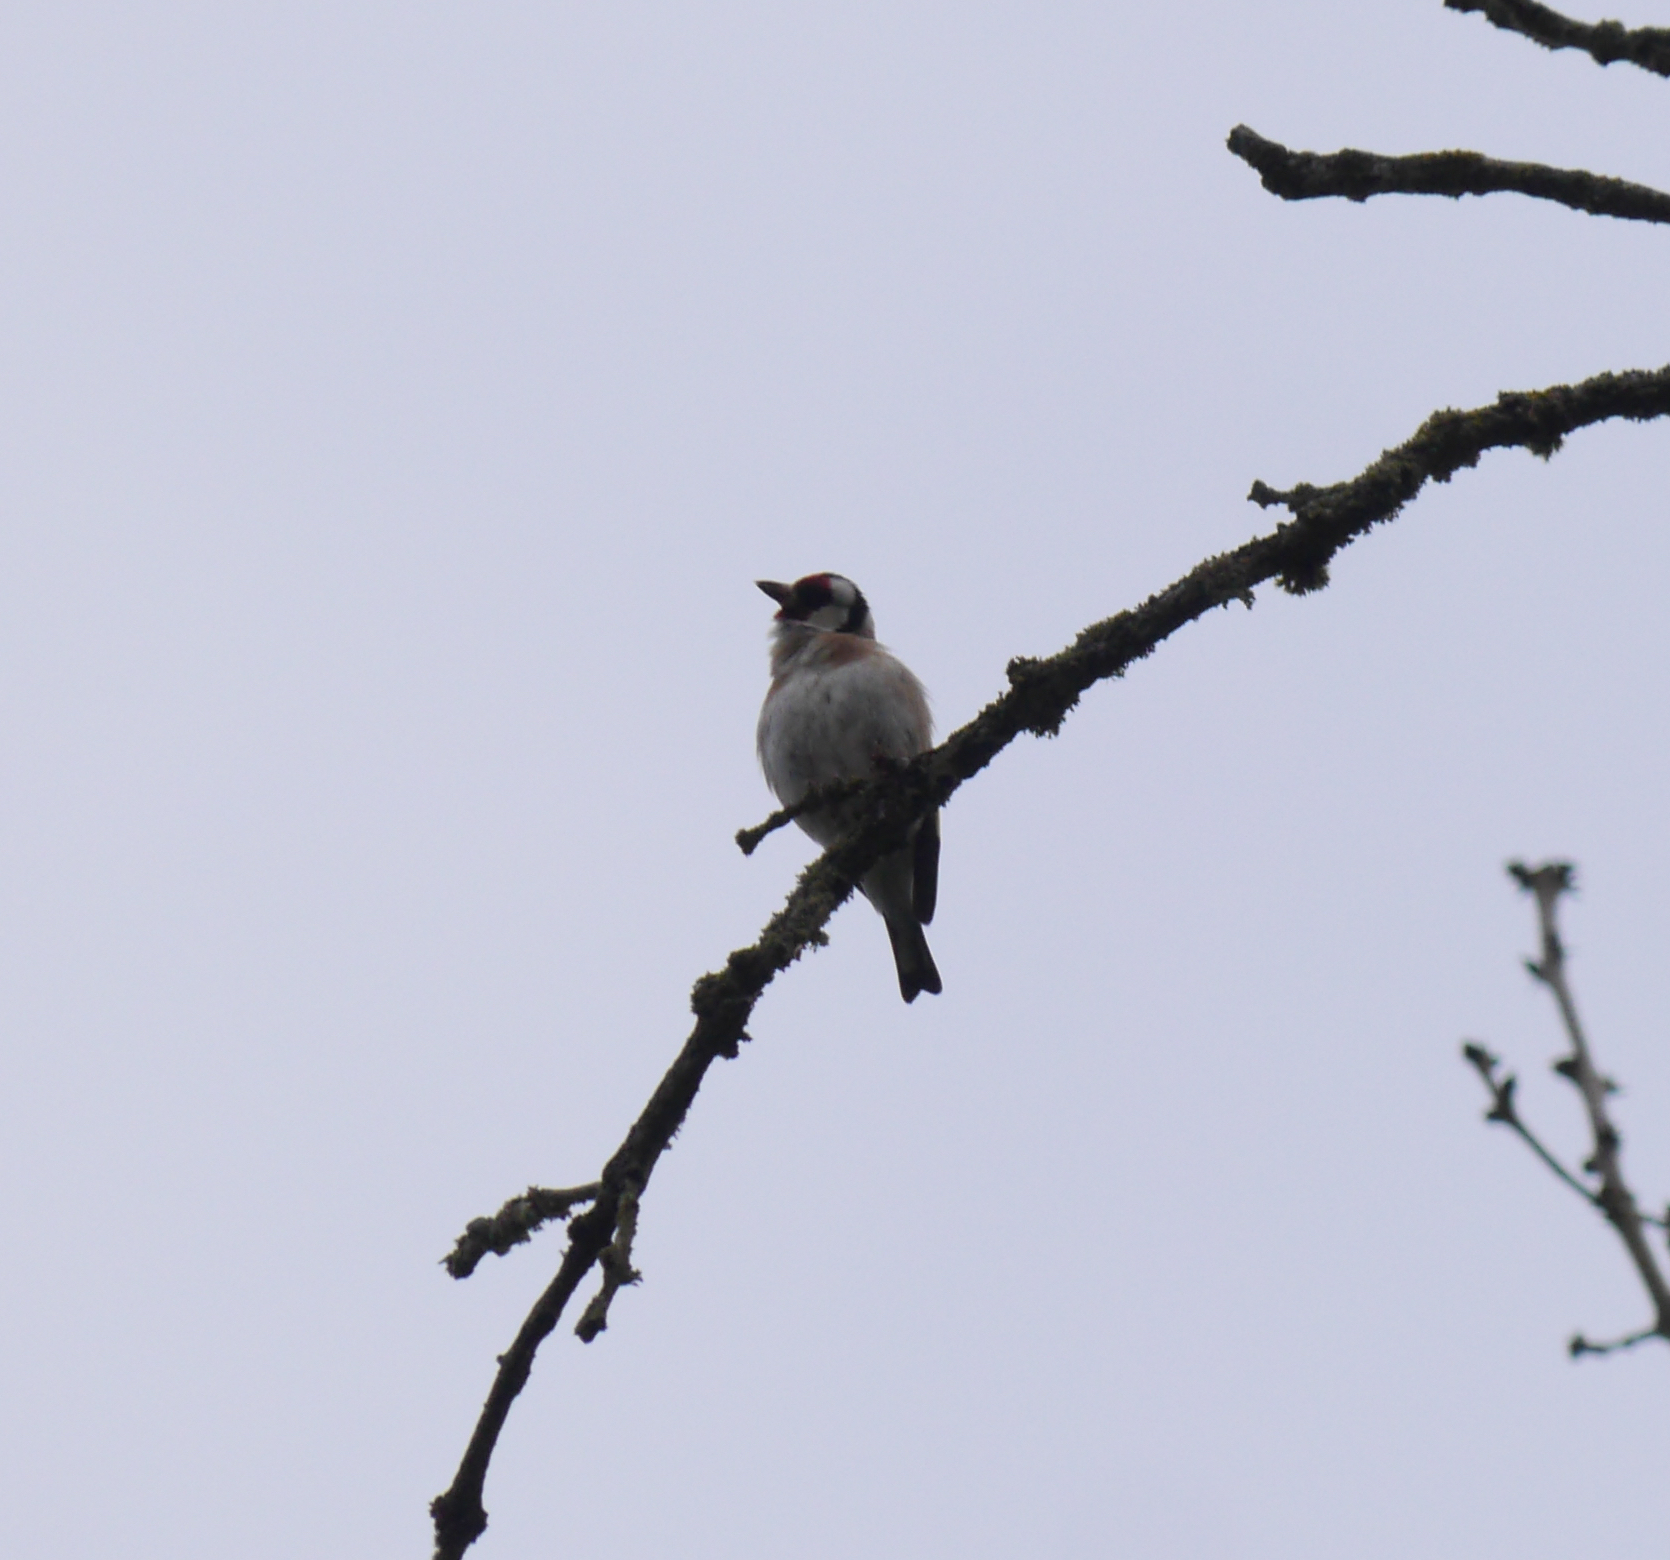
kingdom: Animalia
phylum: Chordata
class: Aves
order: Passeriformes
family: Fringillidae
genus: Carduelis
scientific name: Carduelis carduelis
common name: European goldfinch
